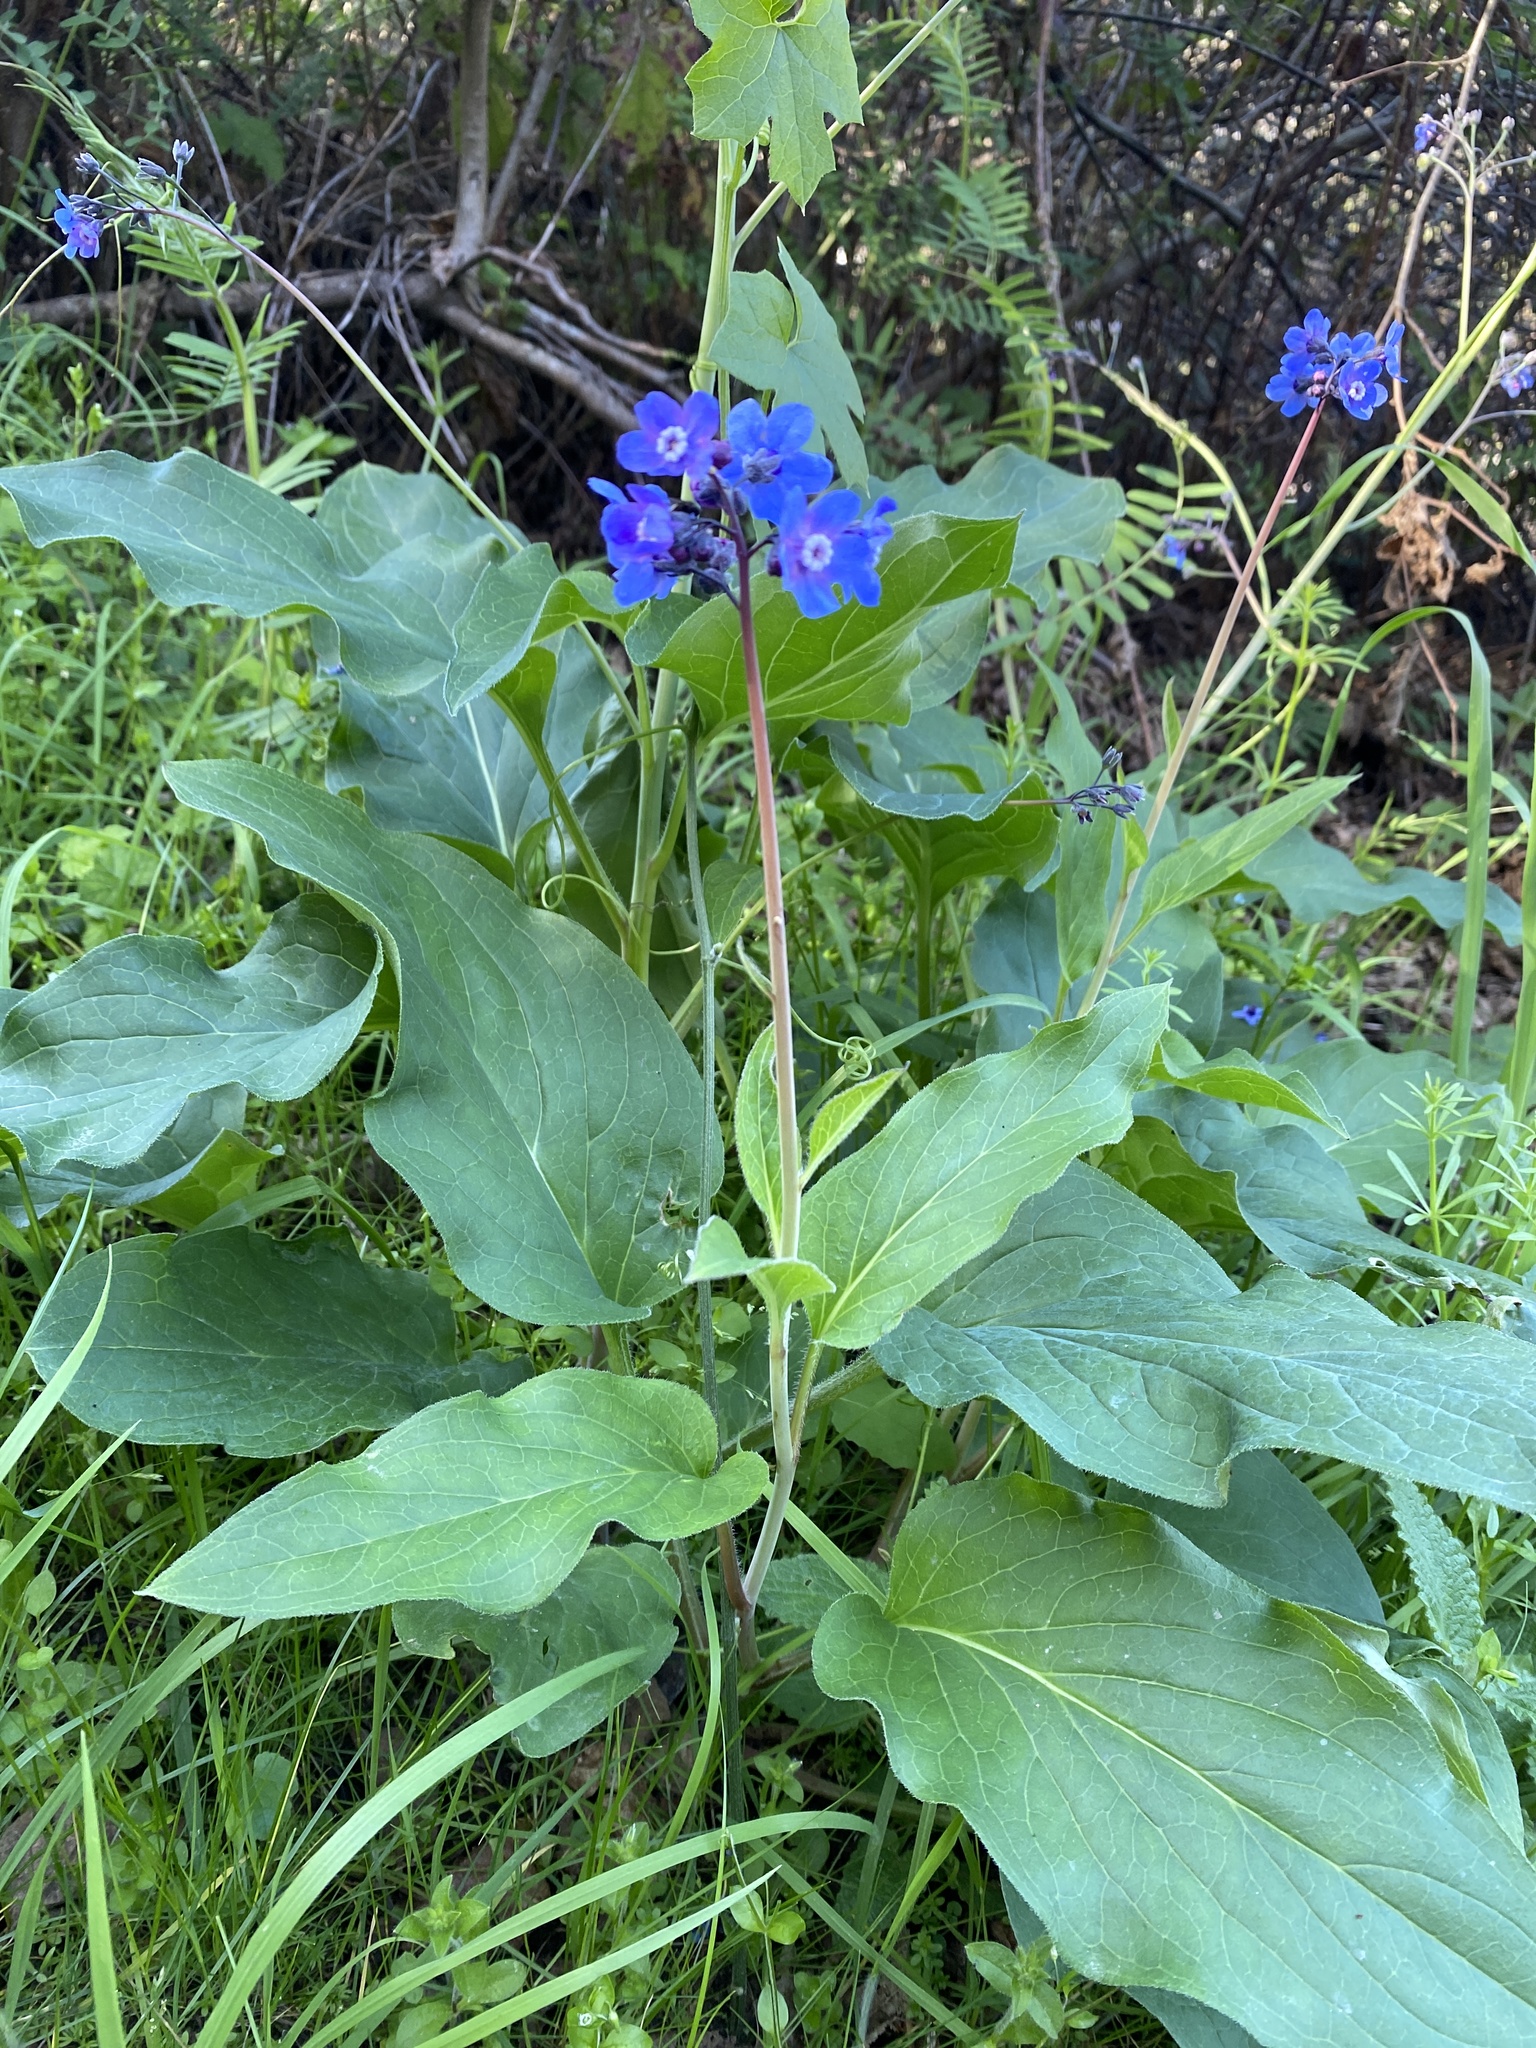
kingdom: Plantae
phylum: Tracheophyta
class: Magnoliopsida
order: Boraginales
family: Boraginaceae
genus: Adelinia
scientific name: Adelinia grande
